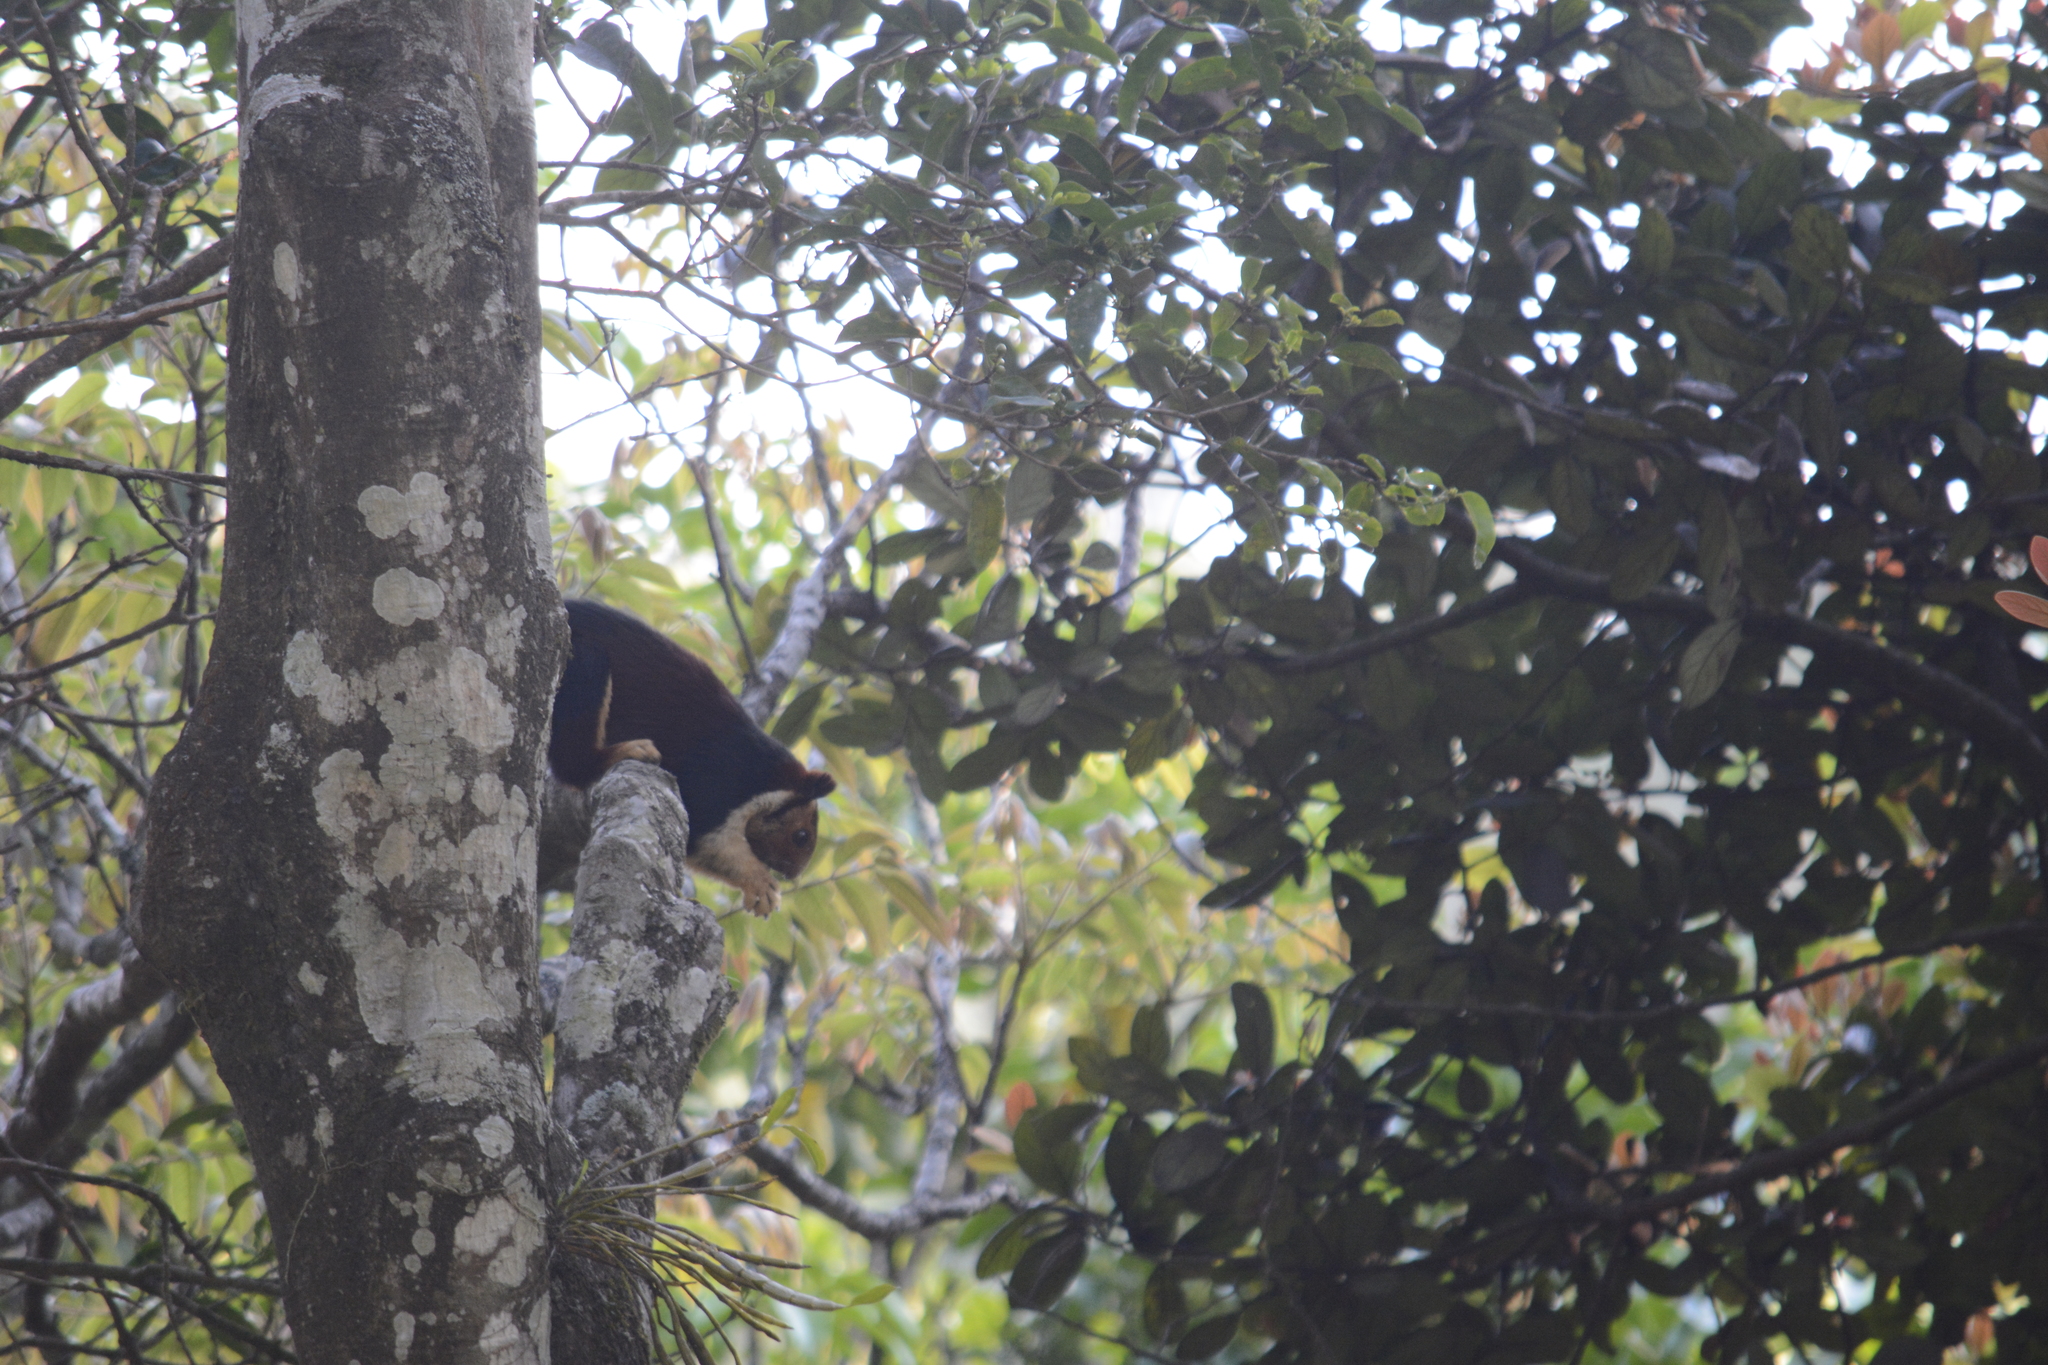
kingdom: Animalia
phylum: Chordata
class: Mammalia
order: Rodentia
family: Sciuridae
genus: Ratufa
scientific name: Ratufa indica
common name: Indian giant squirrel
